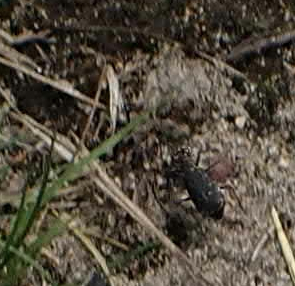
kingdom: Animalia
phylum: Arthropoda
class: Insecta
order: Coleoptera
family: Carabidae
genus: Cicindela
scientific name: Cicindela punctulata
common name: Punctured tiger beetle
